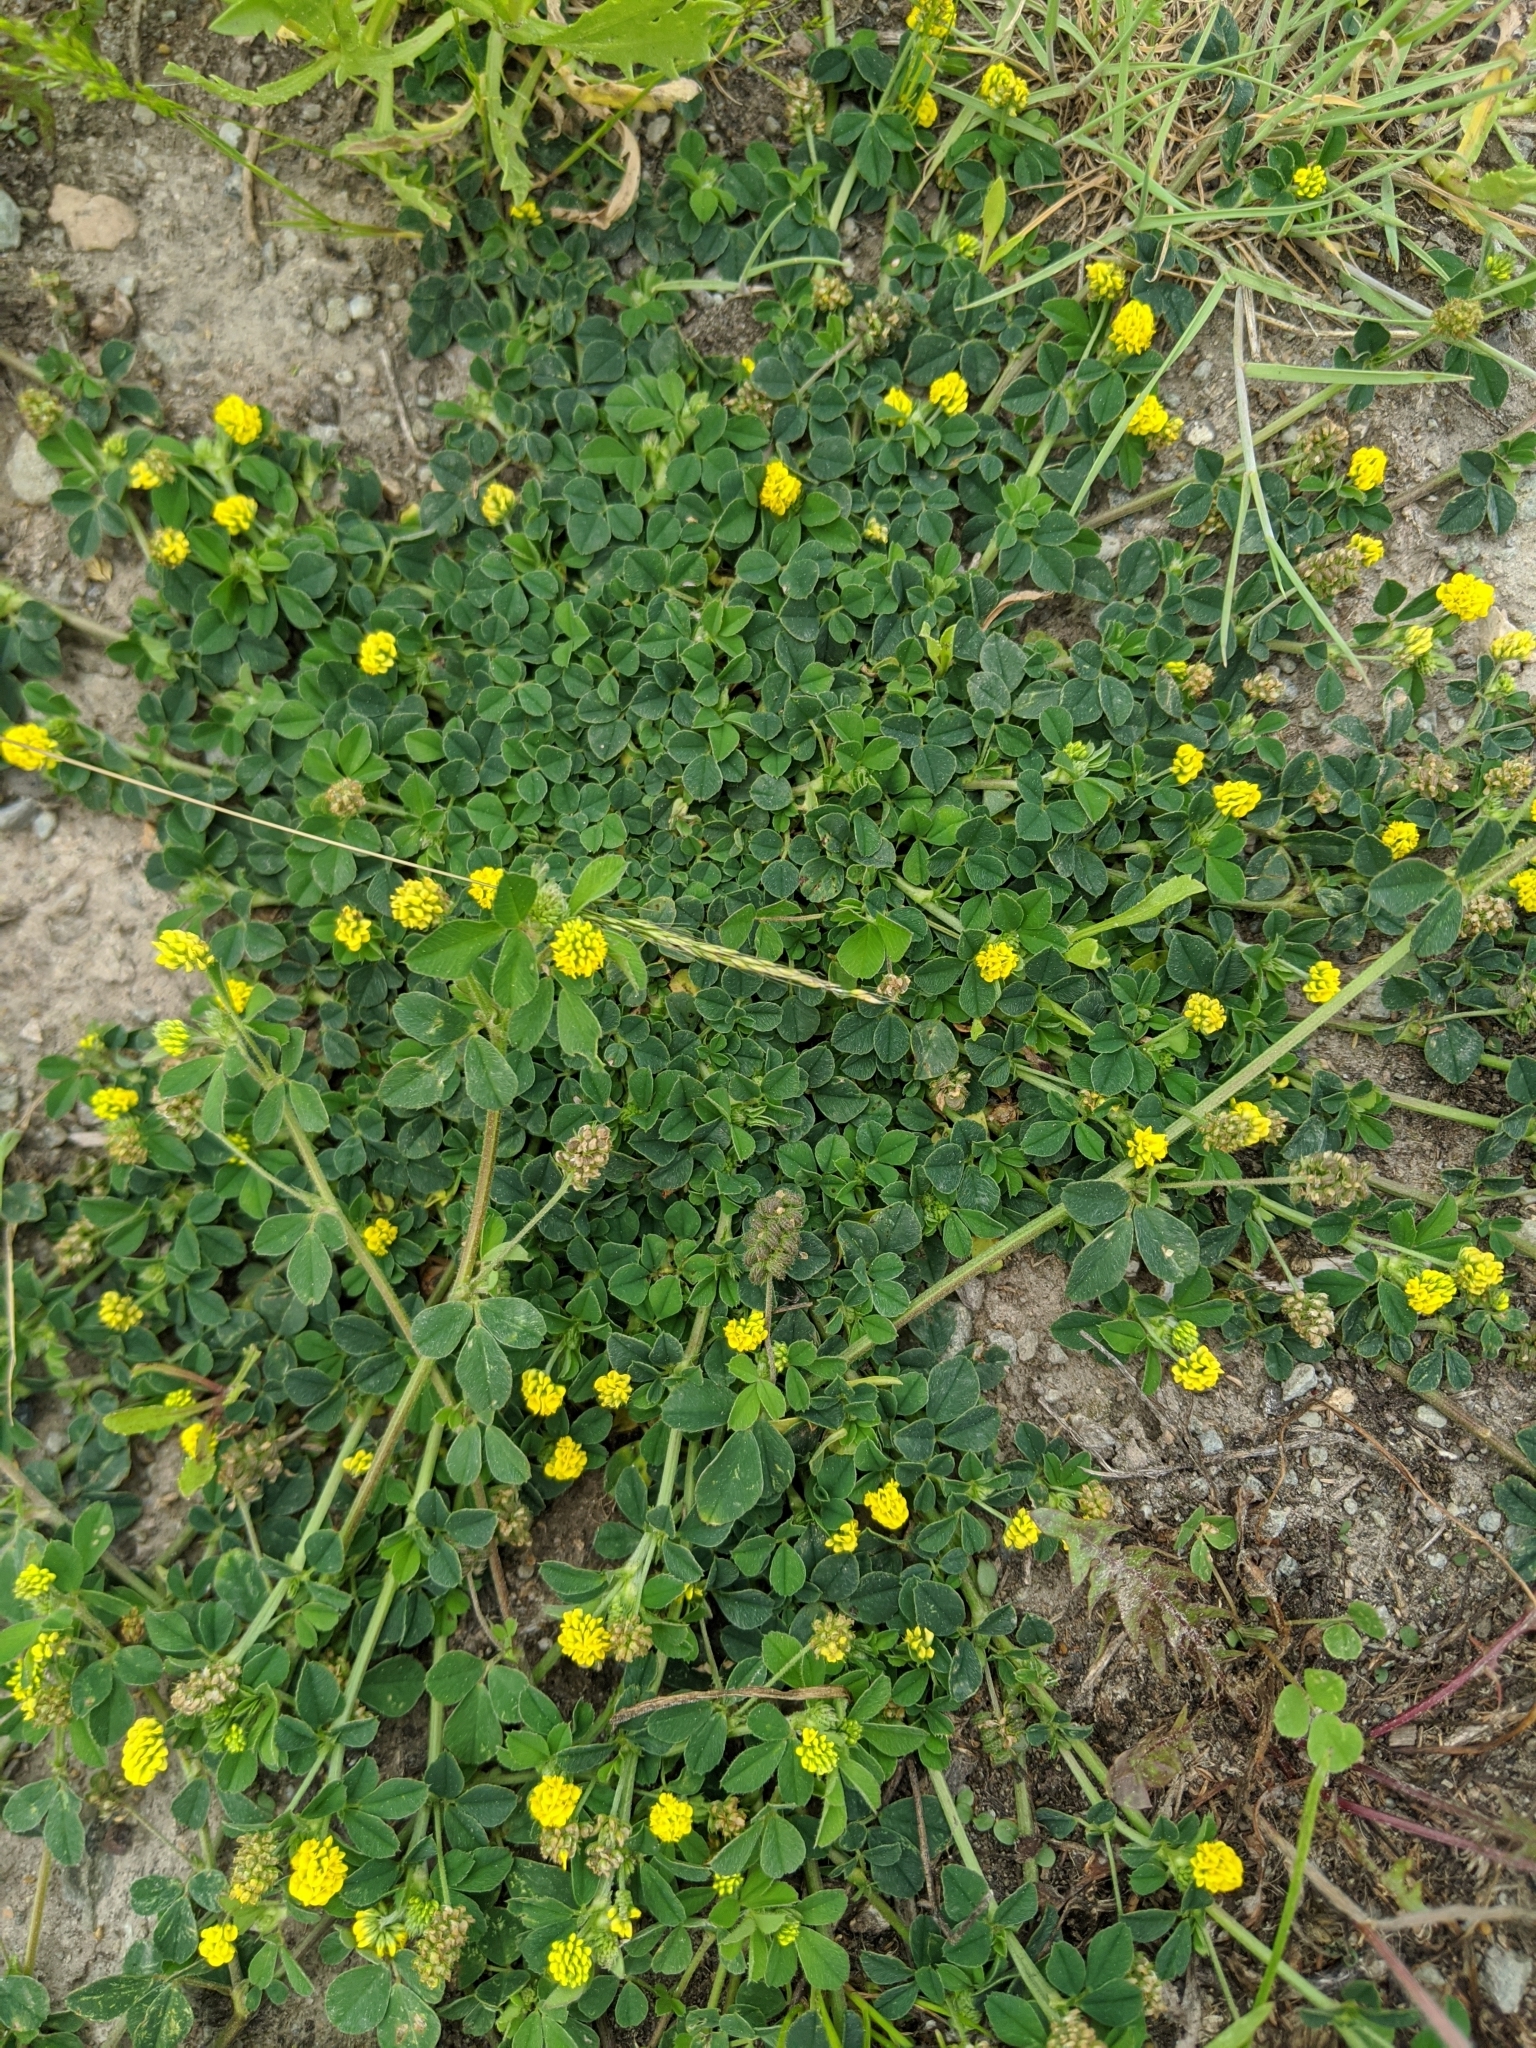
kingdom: Plantae
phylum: Tracheophyta
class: Magnoliopsida
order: Fabales
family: Fabaceae
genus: Medicago
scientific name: Medicago lupulina
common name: Black medick
